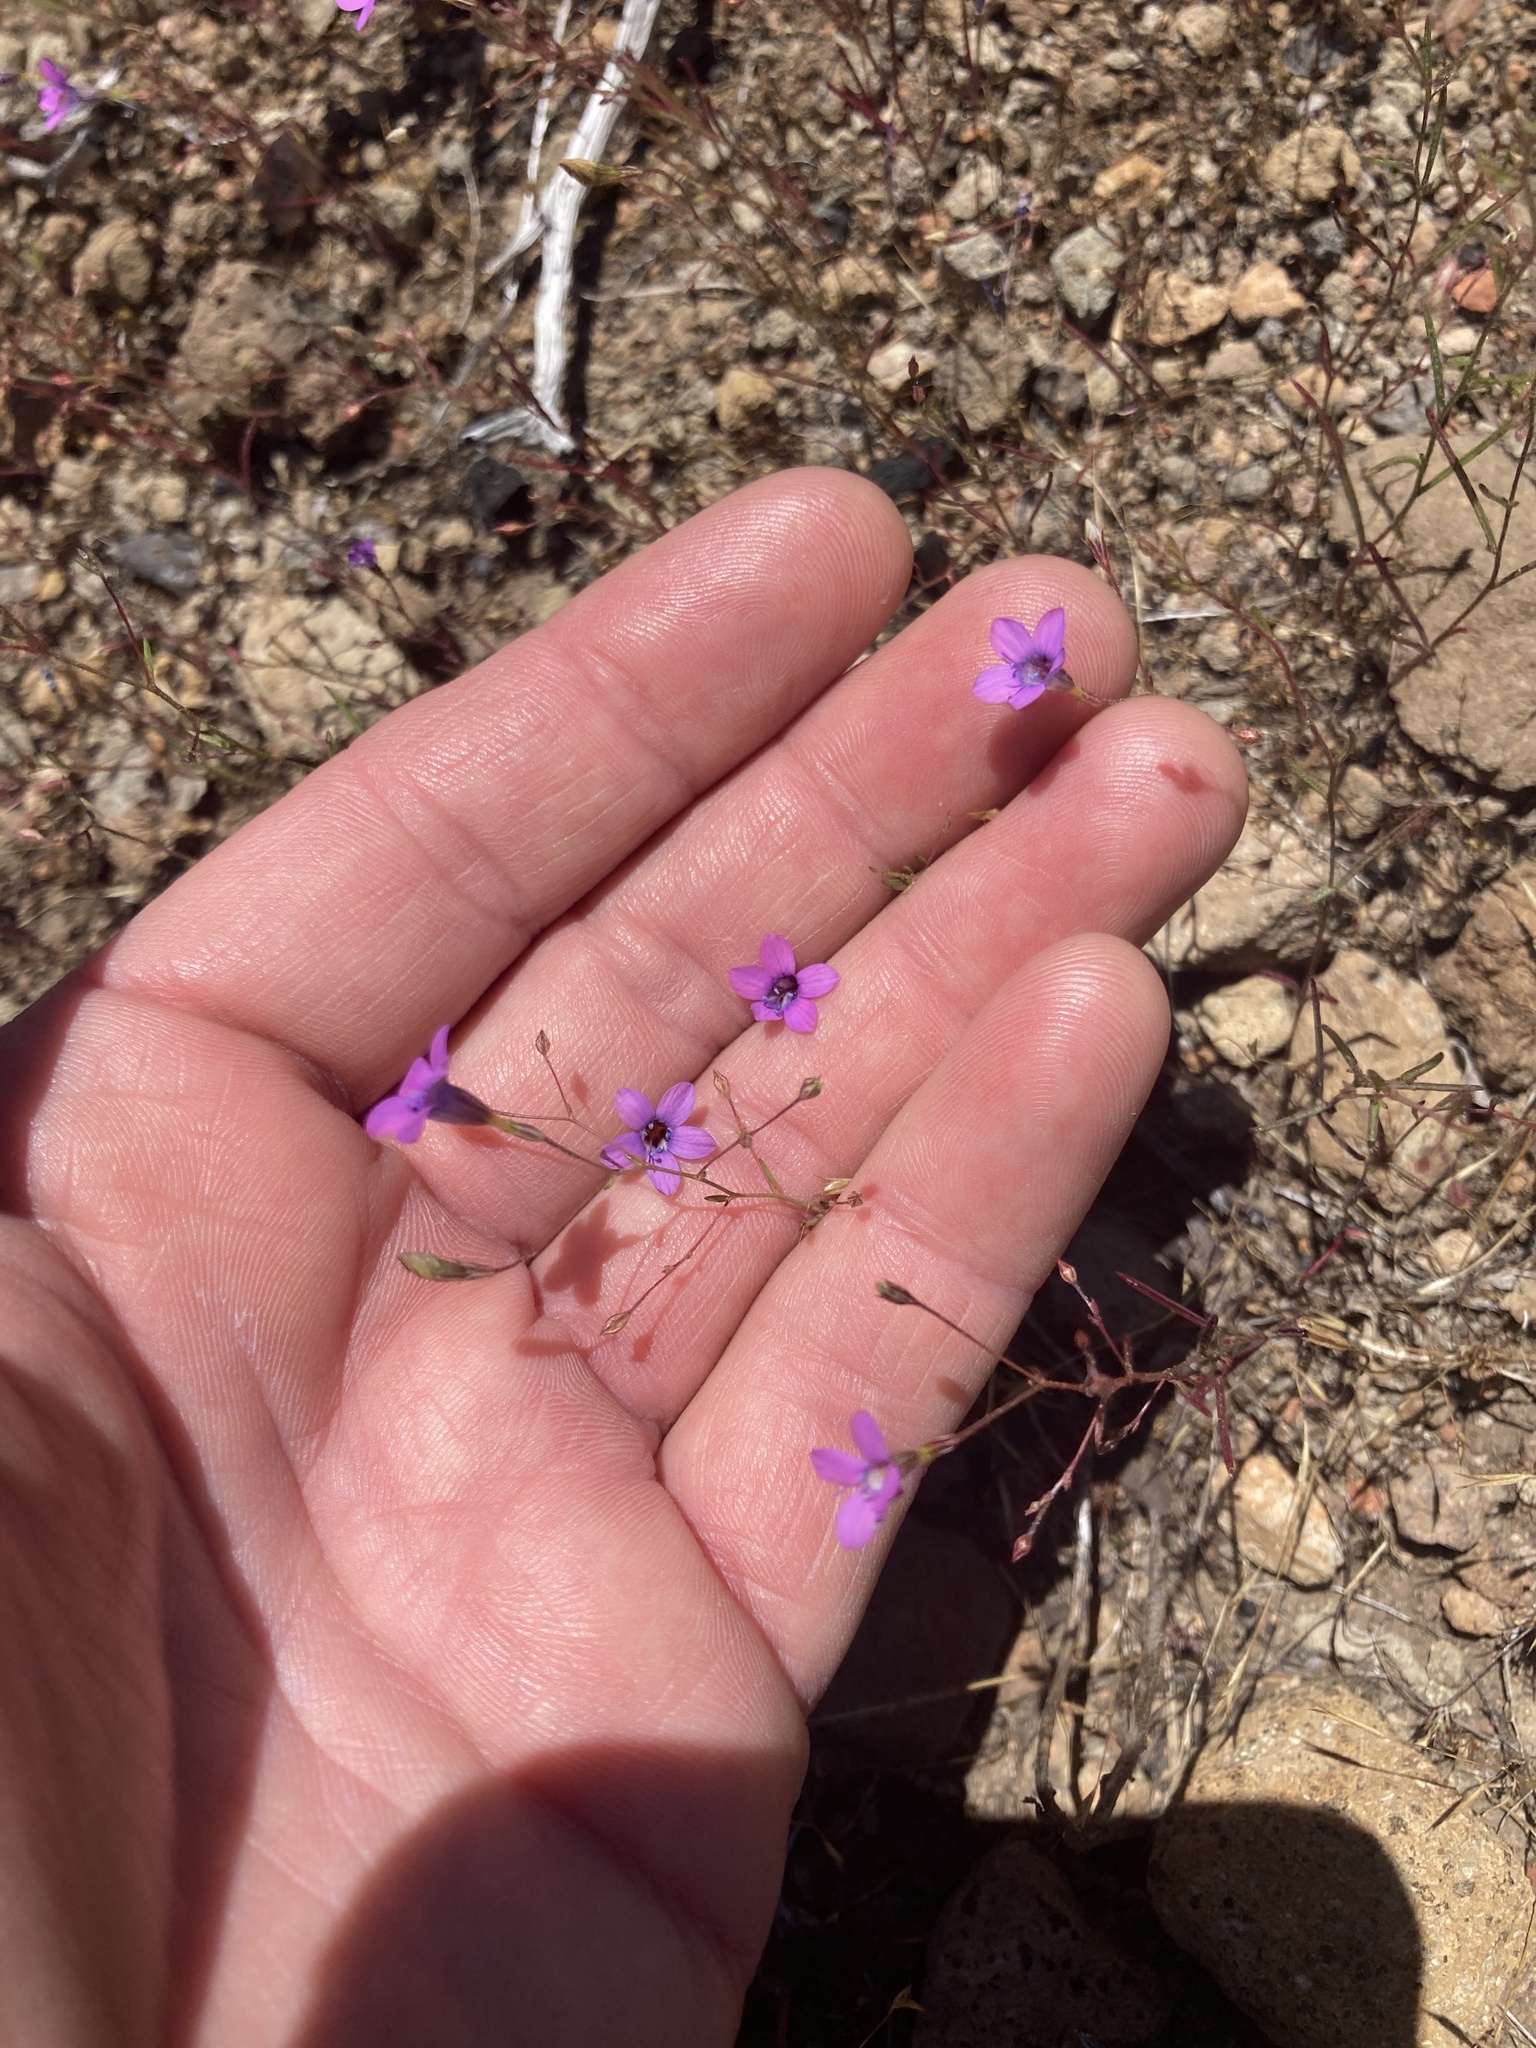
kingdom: Plantae
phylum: Tracheophyta
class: Magnoliopsida
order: Ericales
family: Polemoniaceae
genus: Navarretia
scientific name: Navarretia leptalea
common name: Bridges' pincushionplant
